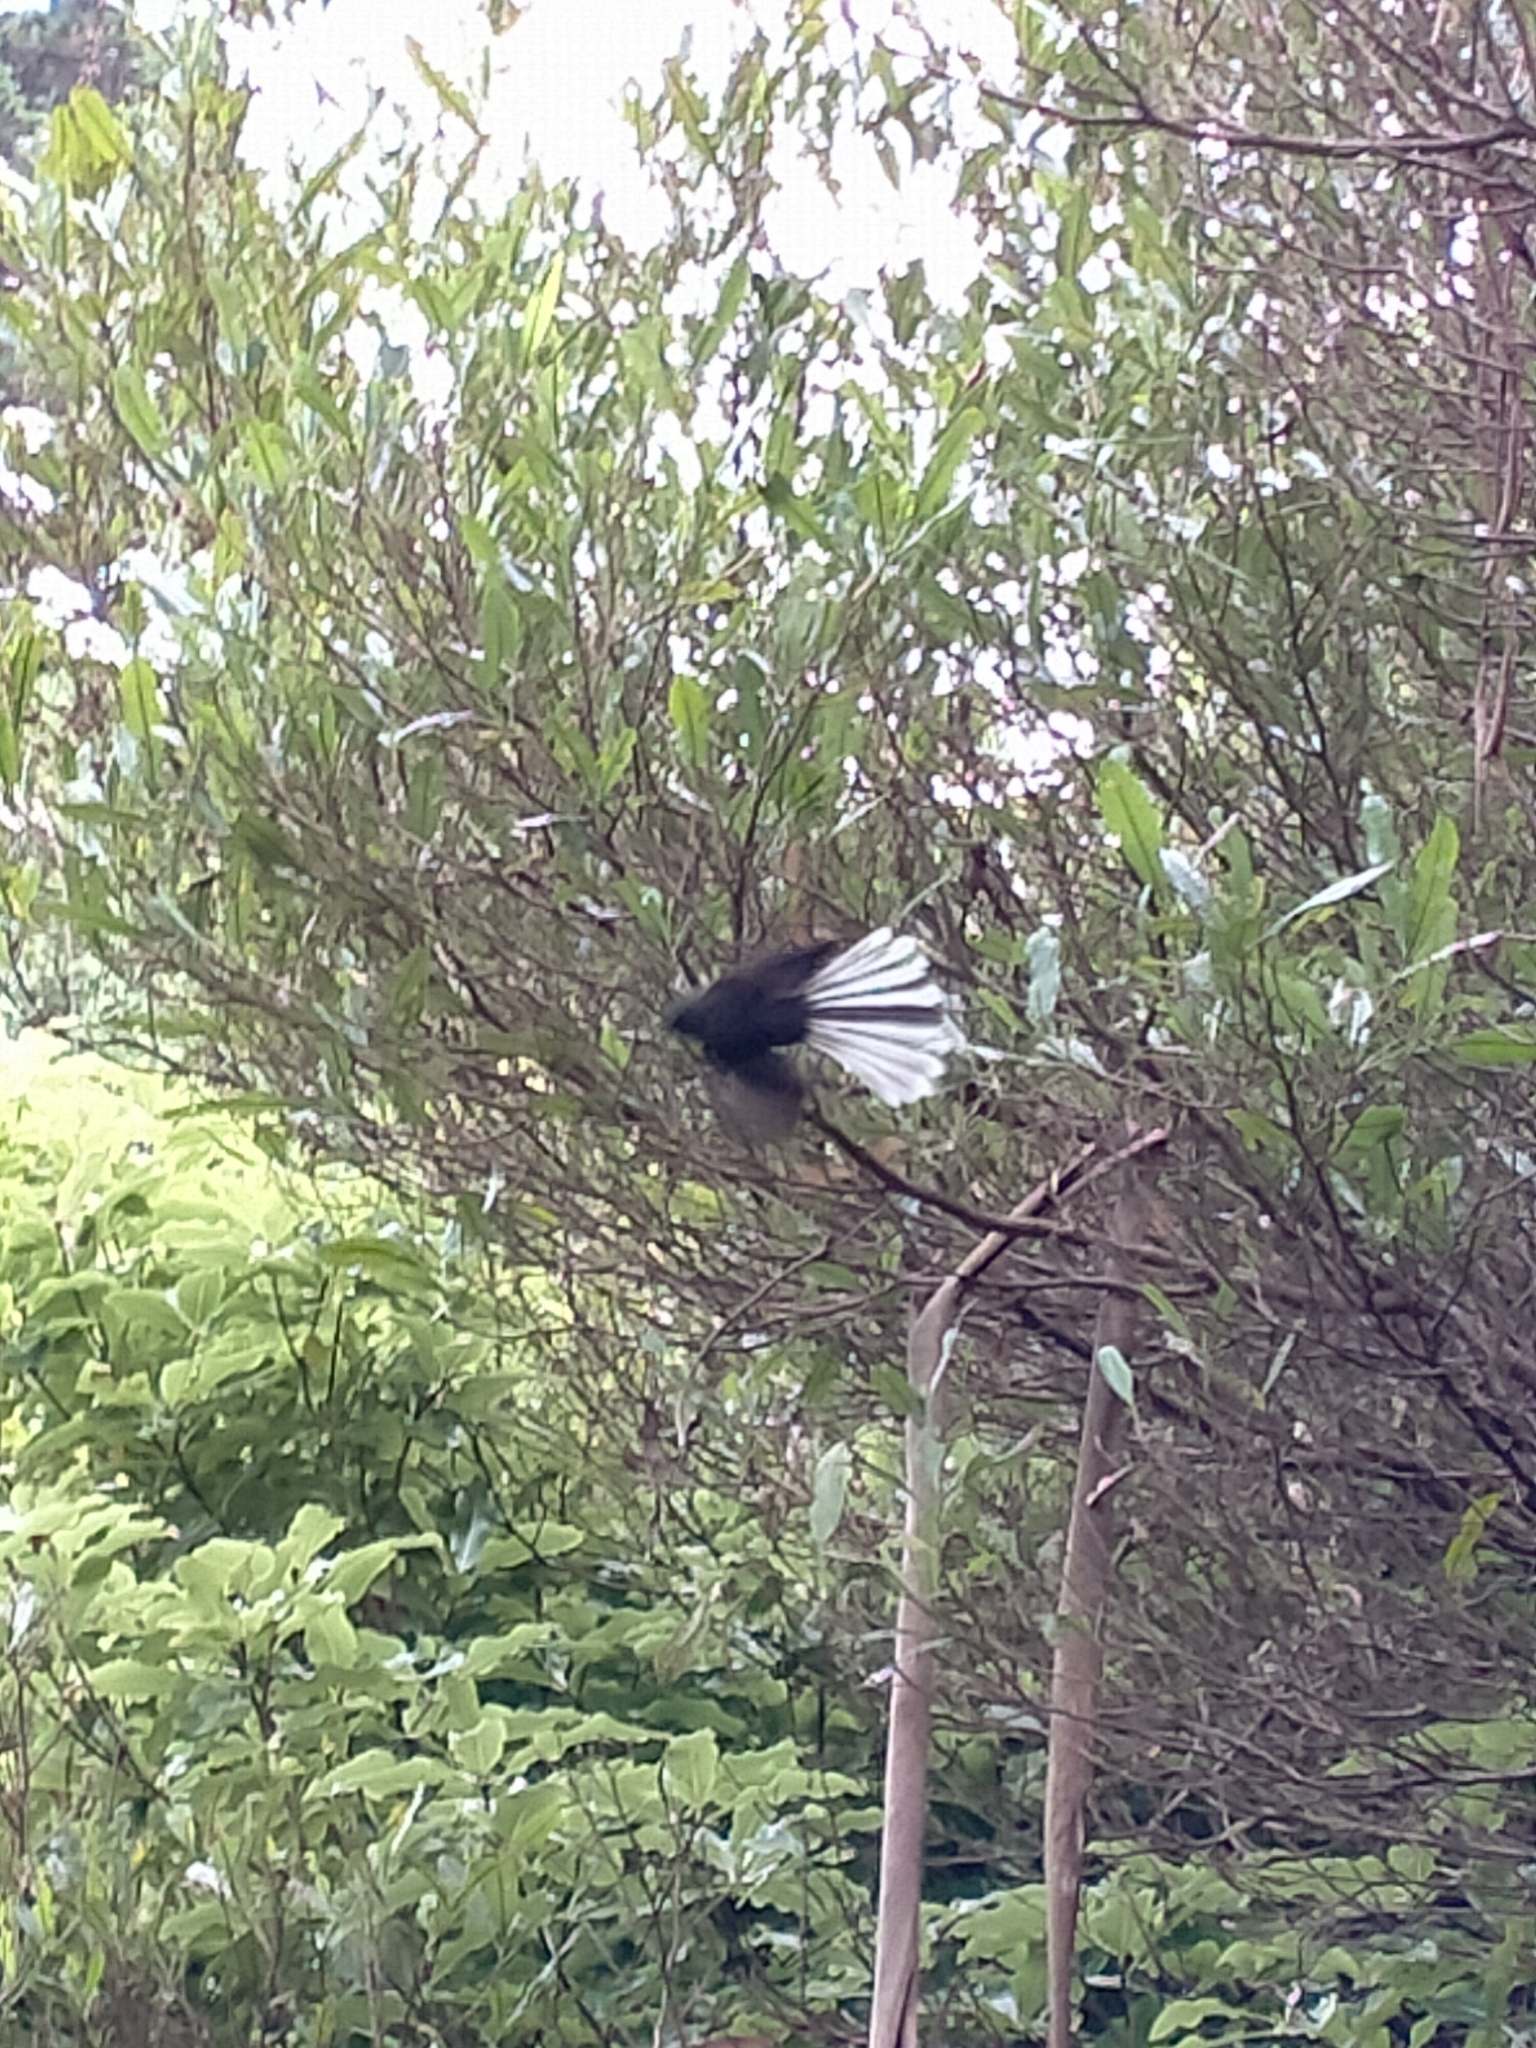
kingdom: Animalia
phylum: Chordata
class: Aves
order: Passeriformes
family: Rhipiduridae
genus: Rhipidura
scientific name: Rhipidura fuliginosa
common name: New zealand fantail
